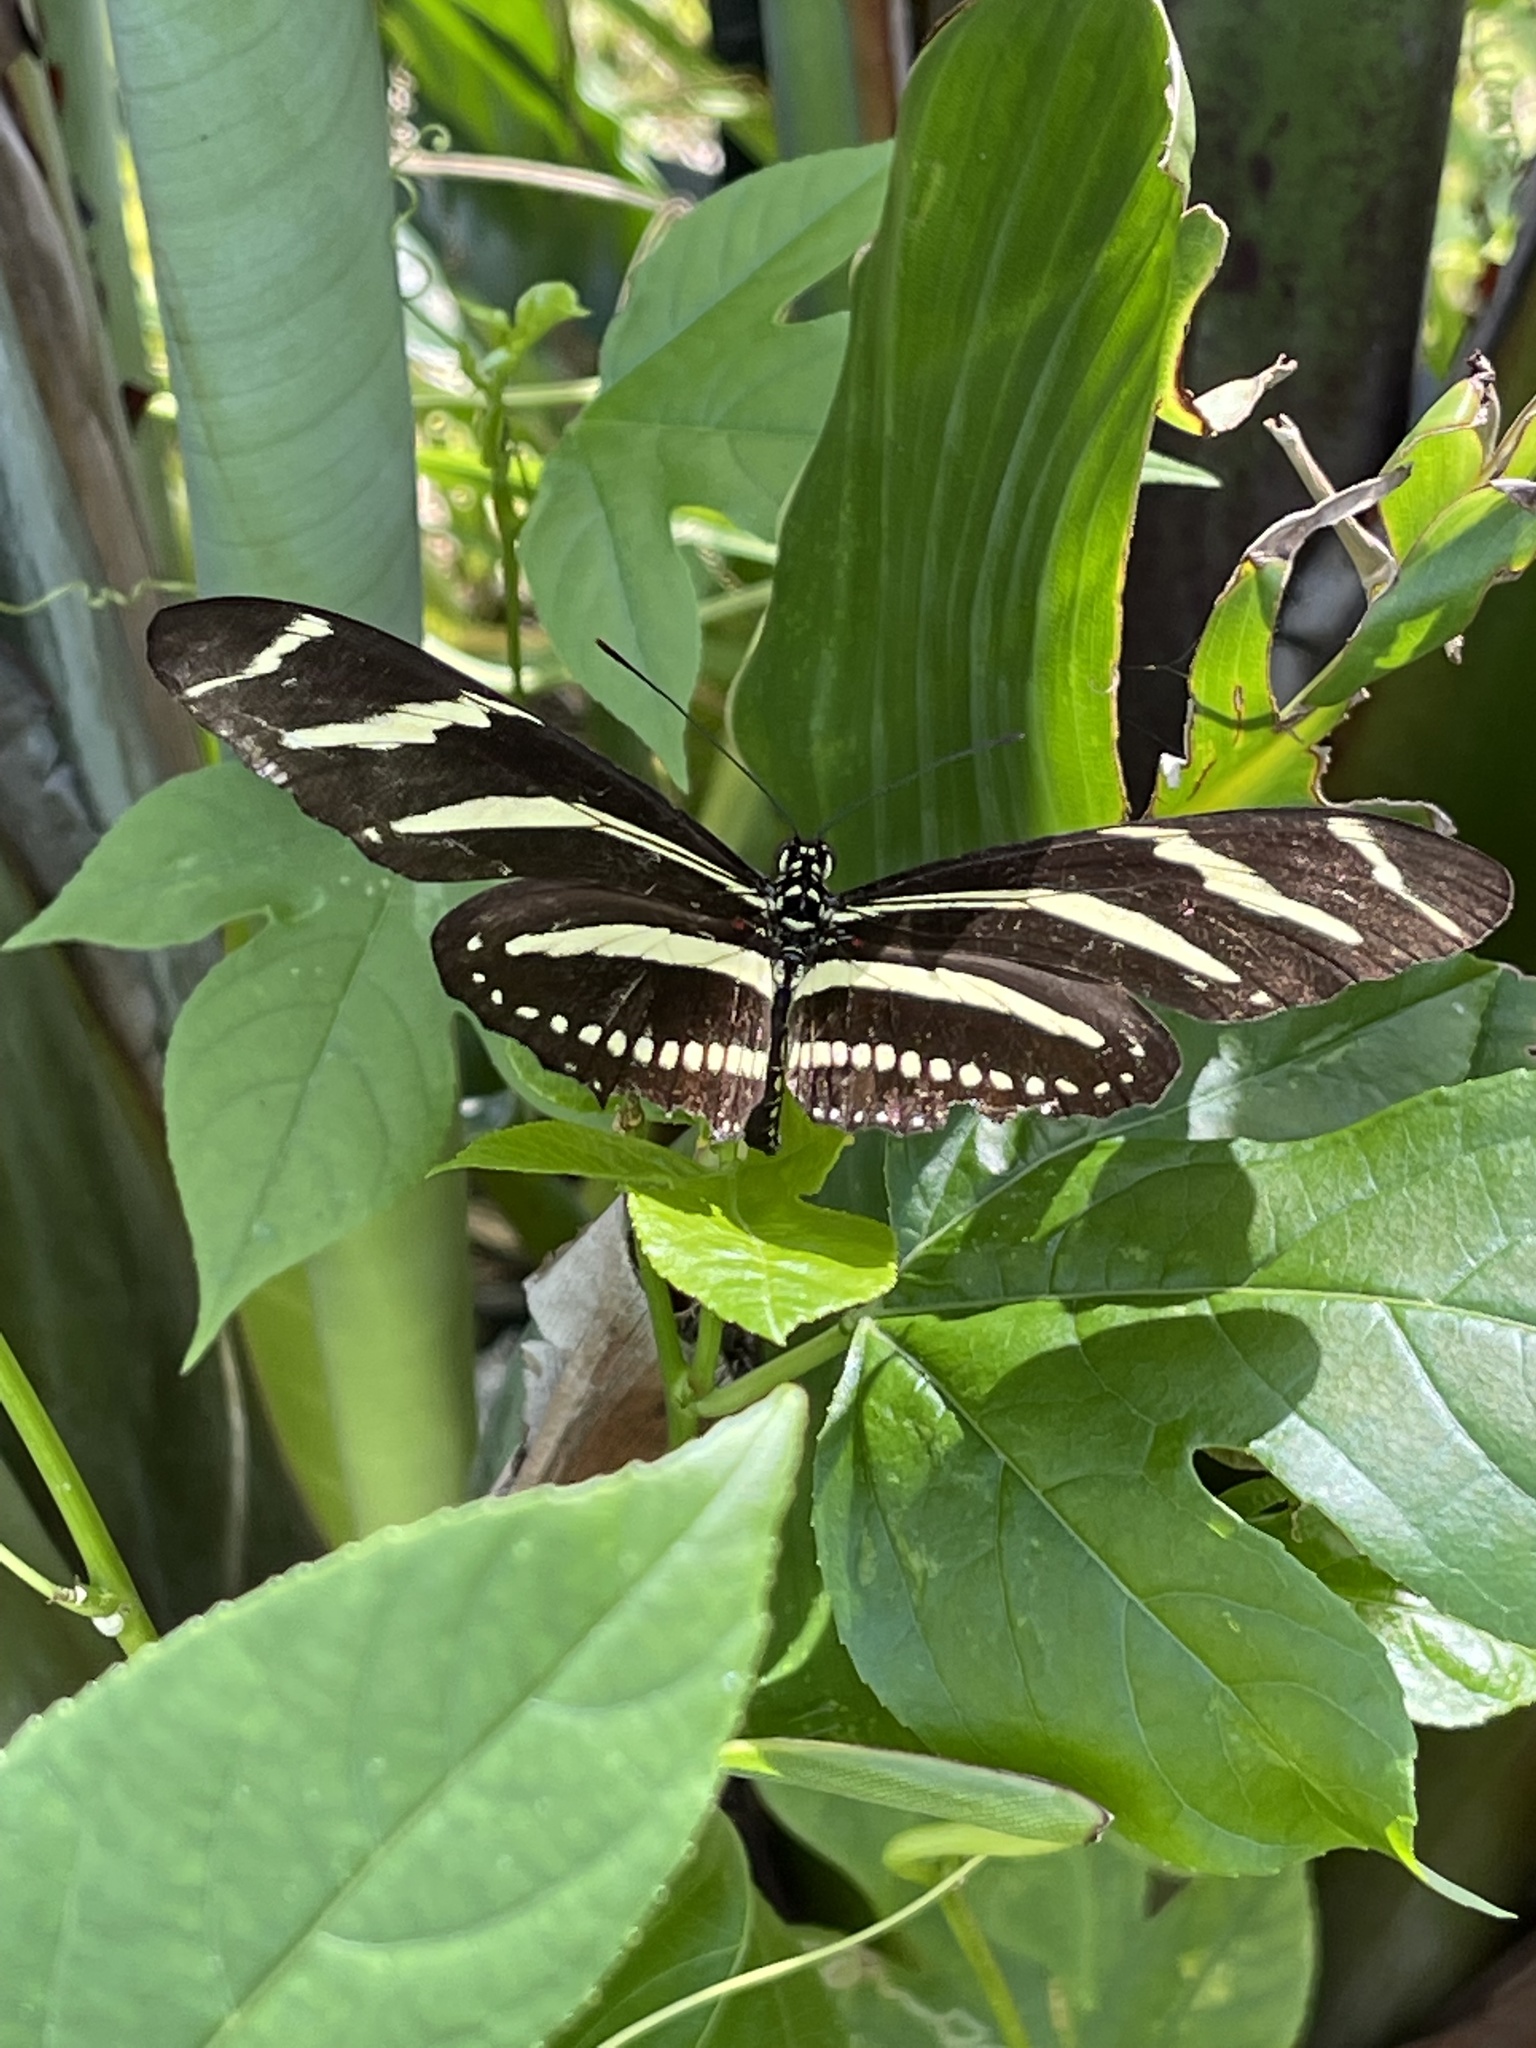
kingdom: Animalia
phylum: Arthropoda
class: Insecta
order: Lepidoptera
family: Nymphalidae
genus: Heliconius
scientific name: Heliconius charithonia
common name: Zebra long wing
